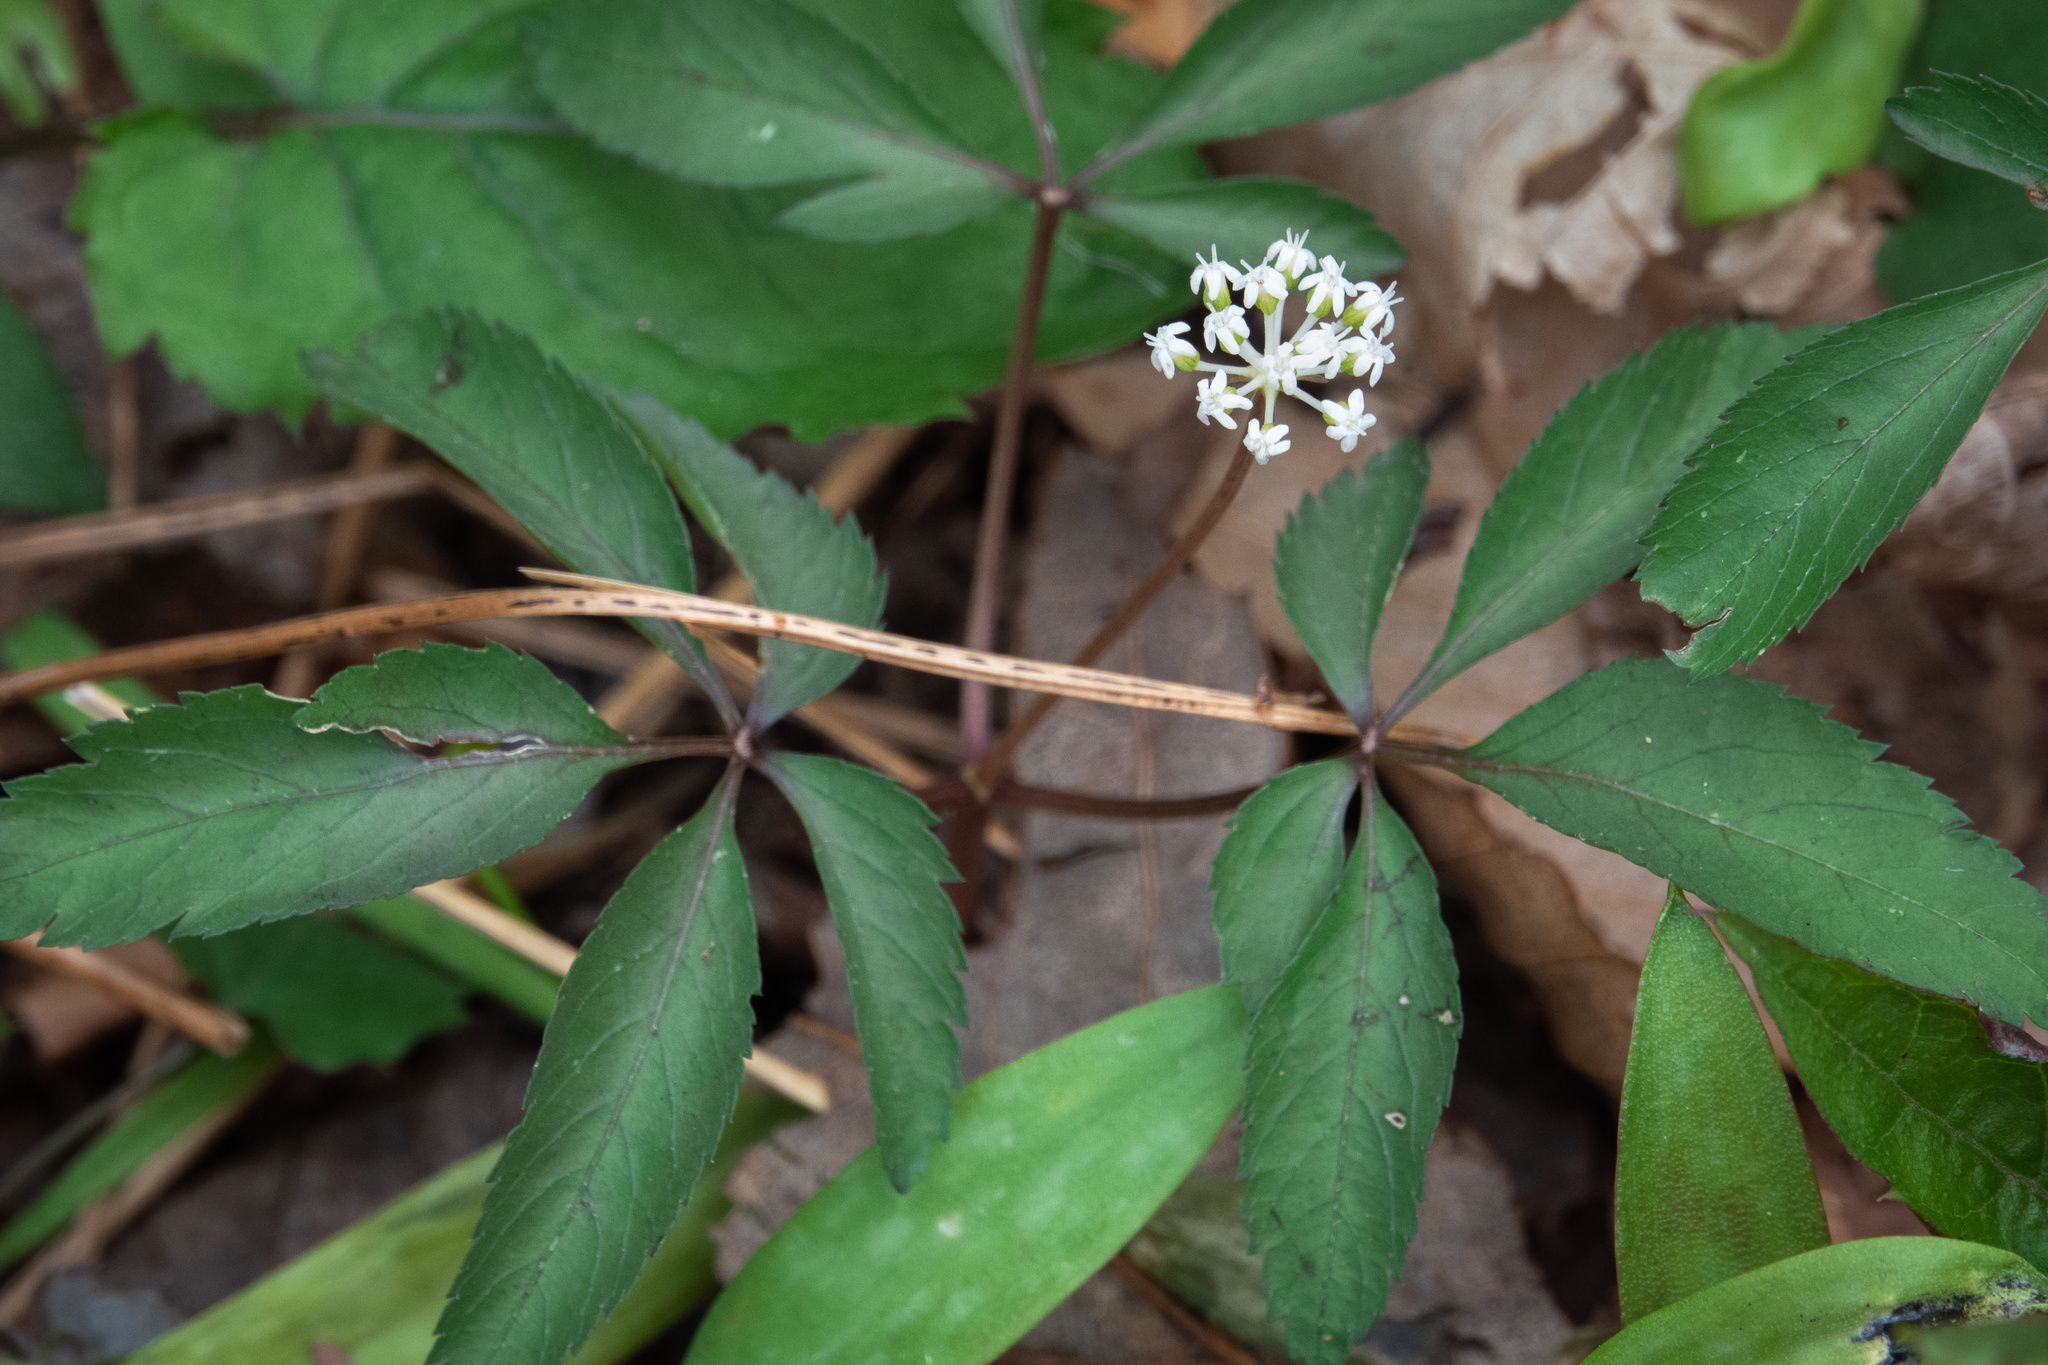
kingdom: Plantae
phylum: Tracheophyta
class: Magnoliopsida
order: Apiales
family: Araliaceae
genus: Panax
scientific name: Panax trifolius
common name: Dwarf ginseng
